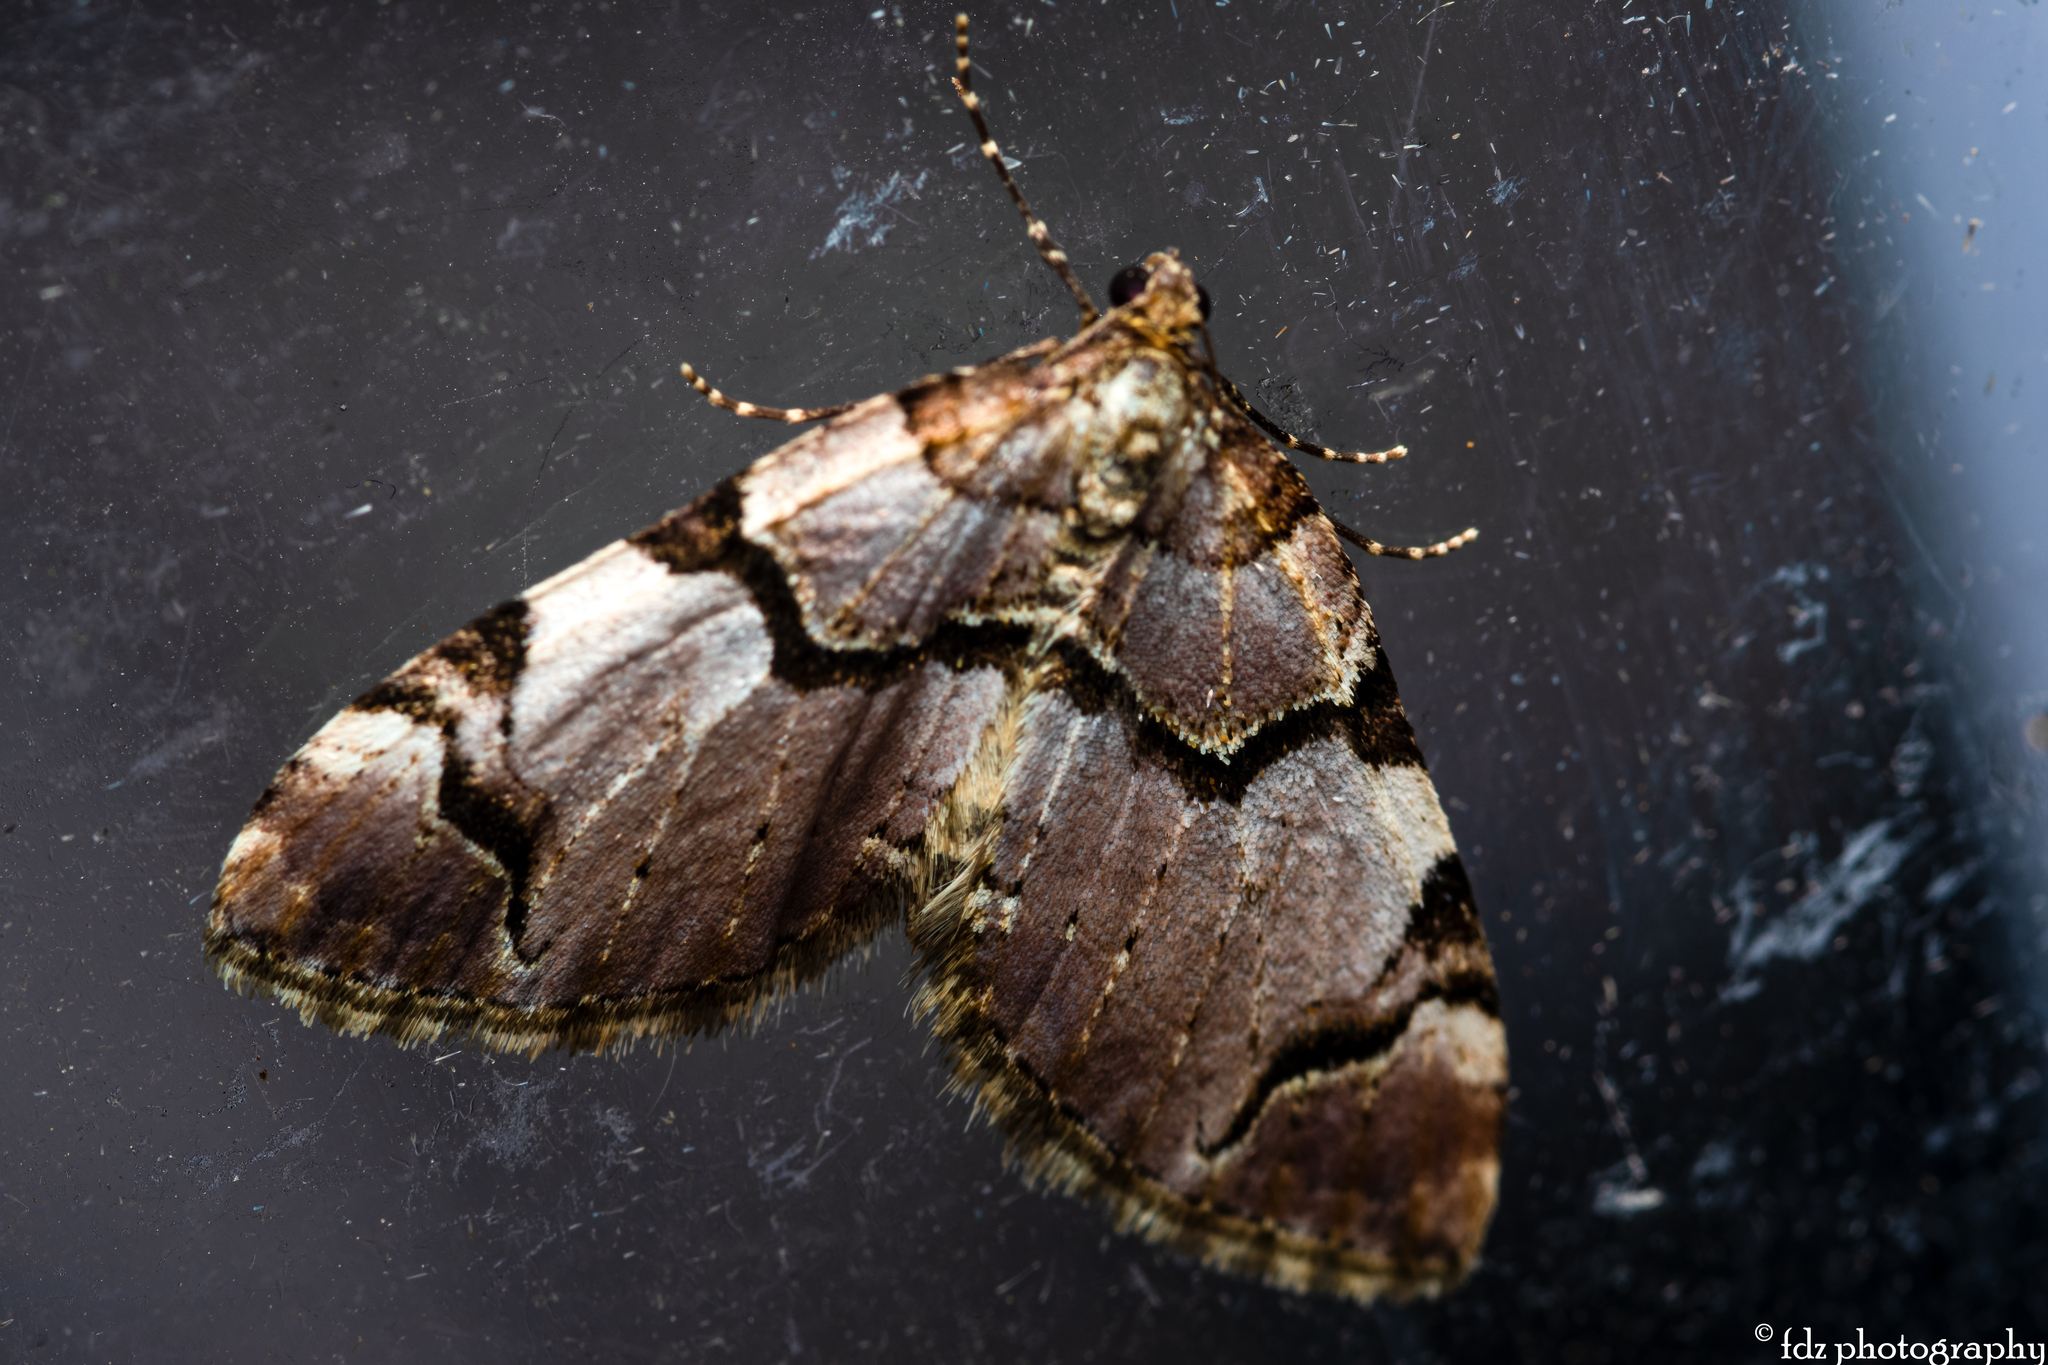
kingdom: Animalia
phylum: Arthropoda
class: Insecta
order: Lepidoptera
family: Geometridae
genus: Anticlea
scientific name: Anticlea derivata
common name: Streamer
